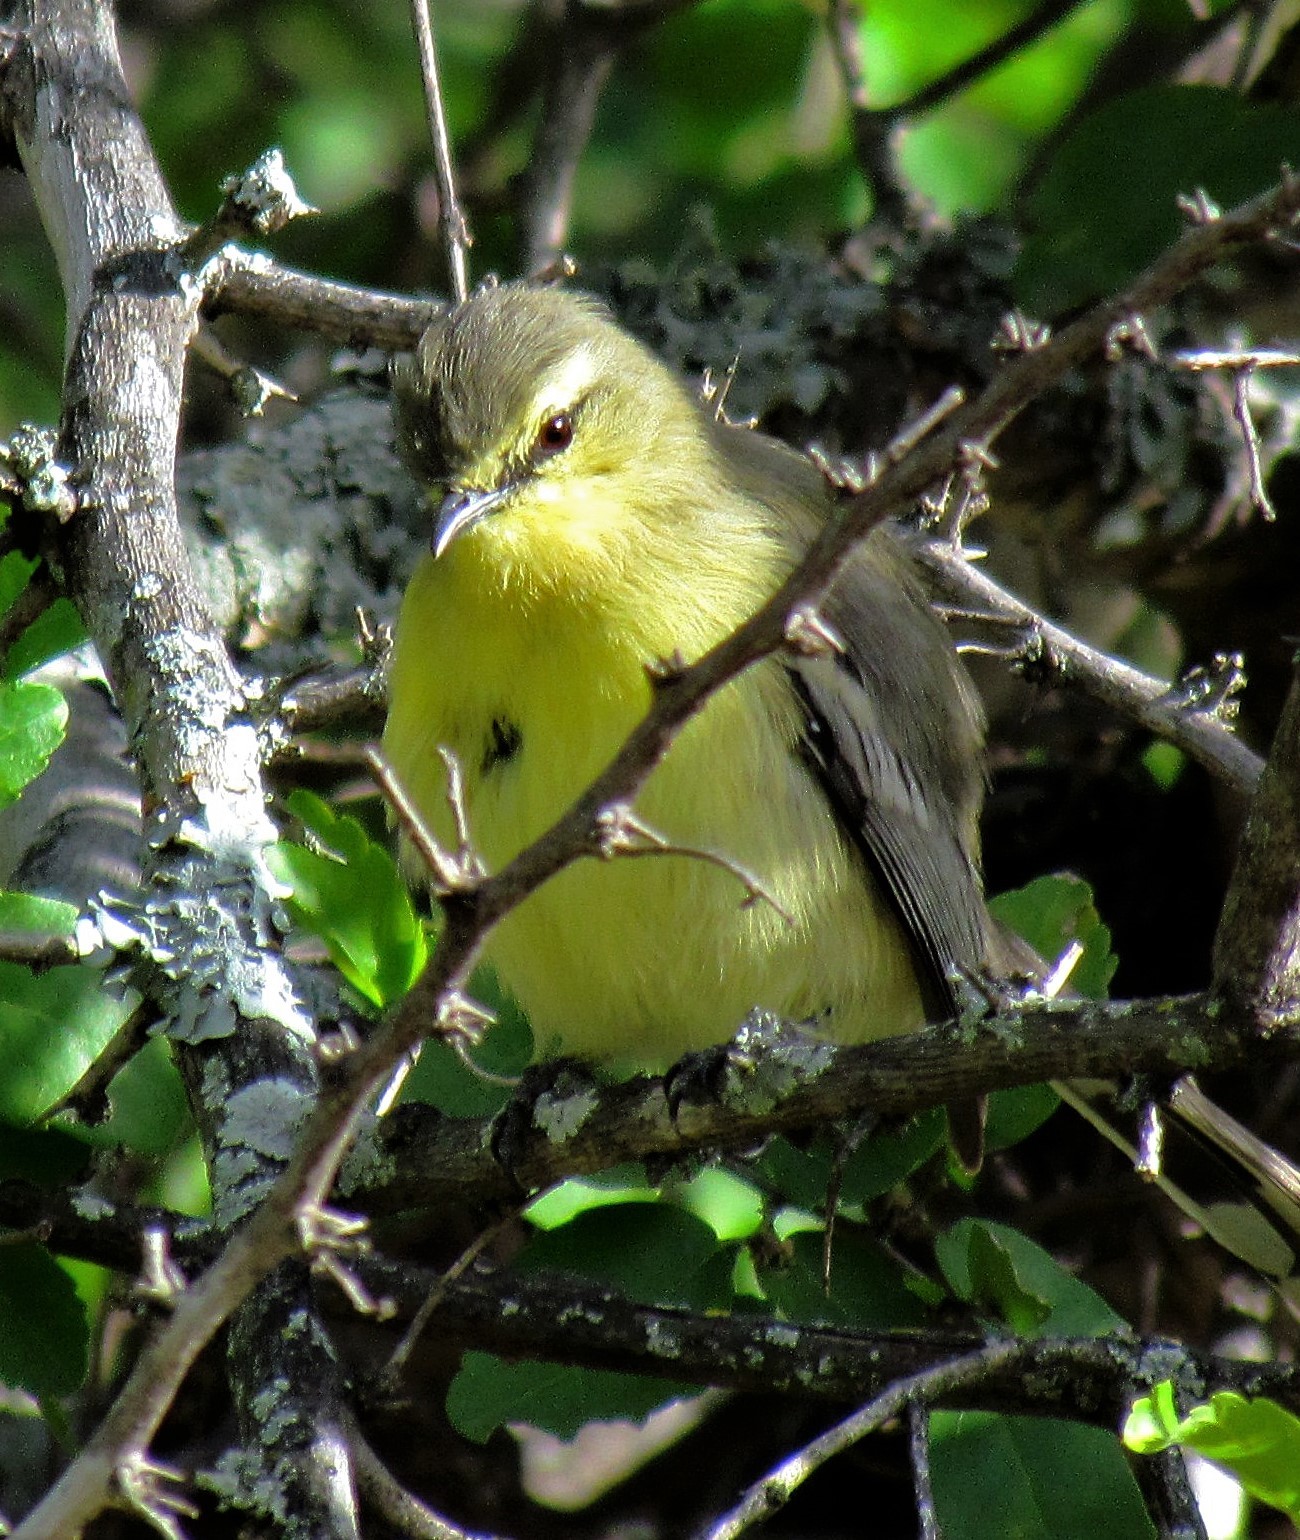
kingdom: Animalia
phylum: Chordata
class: Aves
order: Passeriformes
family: Tyrannidae
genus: Stigmatura
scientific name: Stigmatura budytoides
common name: Greater wagtail-tyrant
